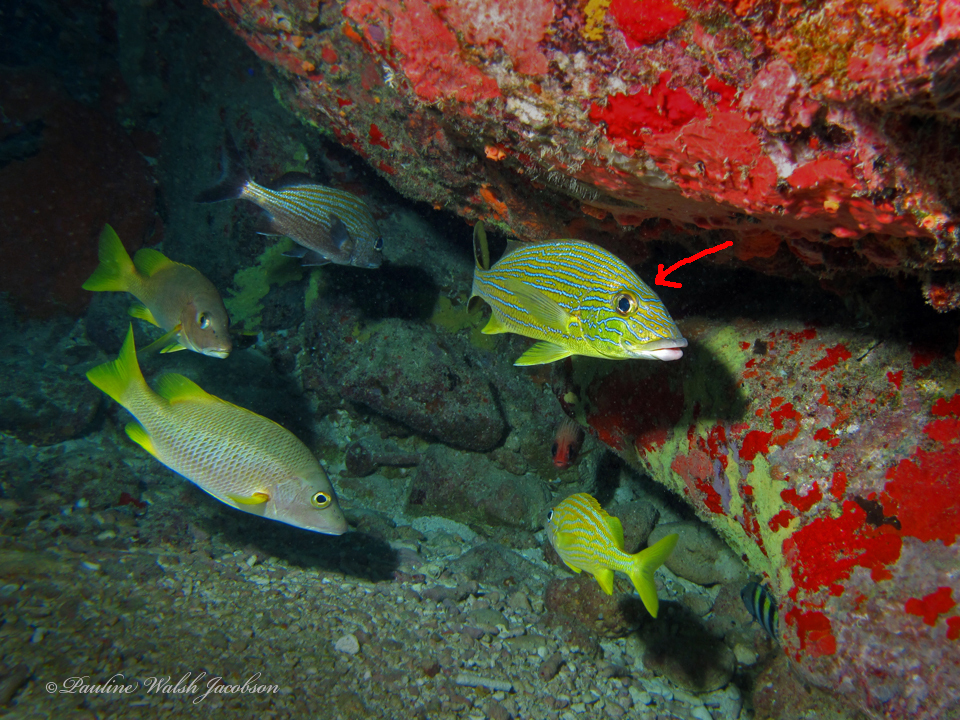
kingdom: Animalia
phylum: Chordata
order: Perciformes
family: Haemulidae
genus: Haemulon
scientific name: Haemulon sciurus
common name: Bluestriped grunt
